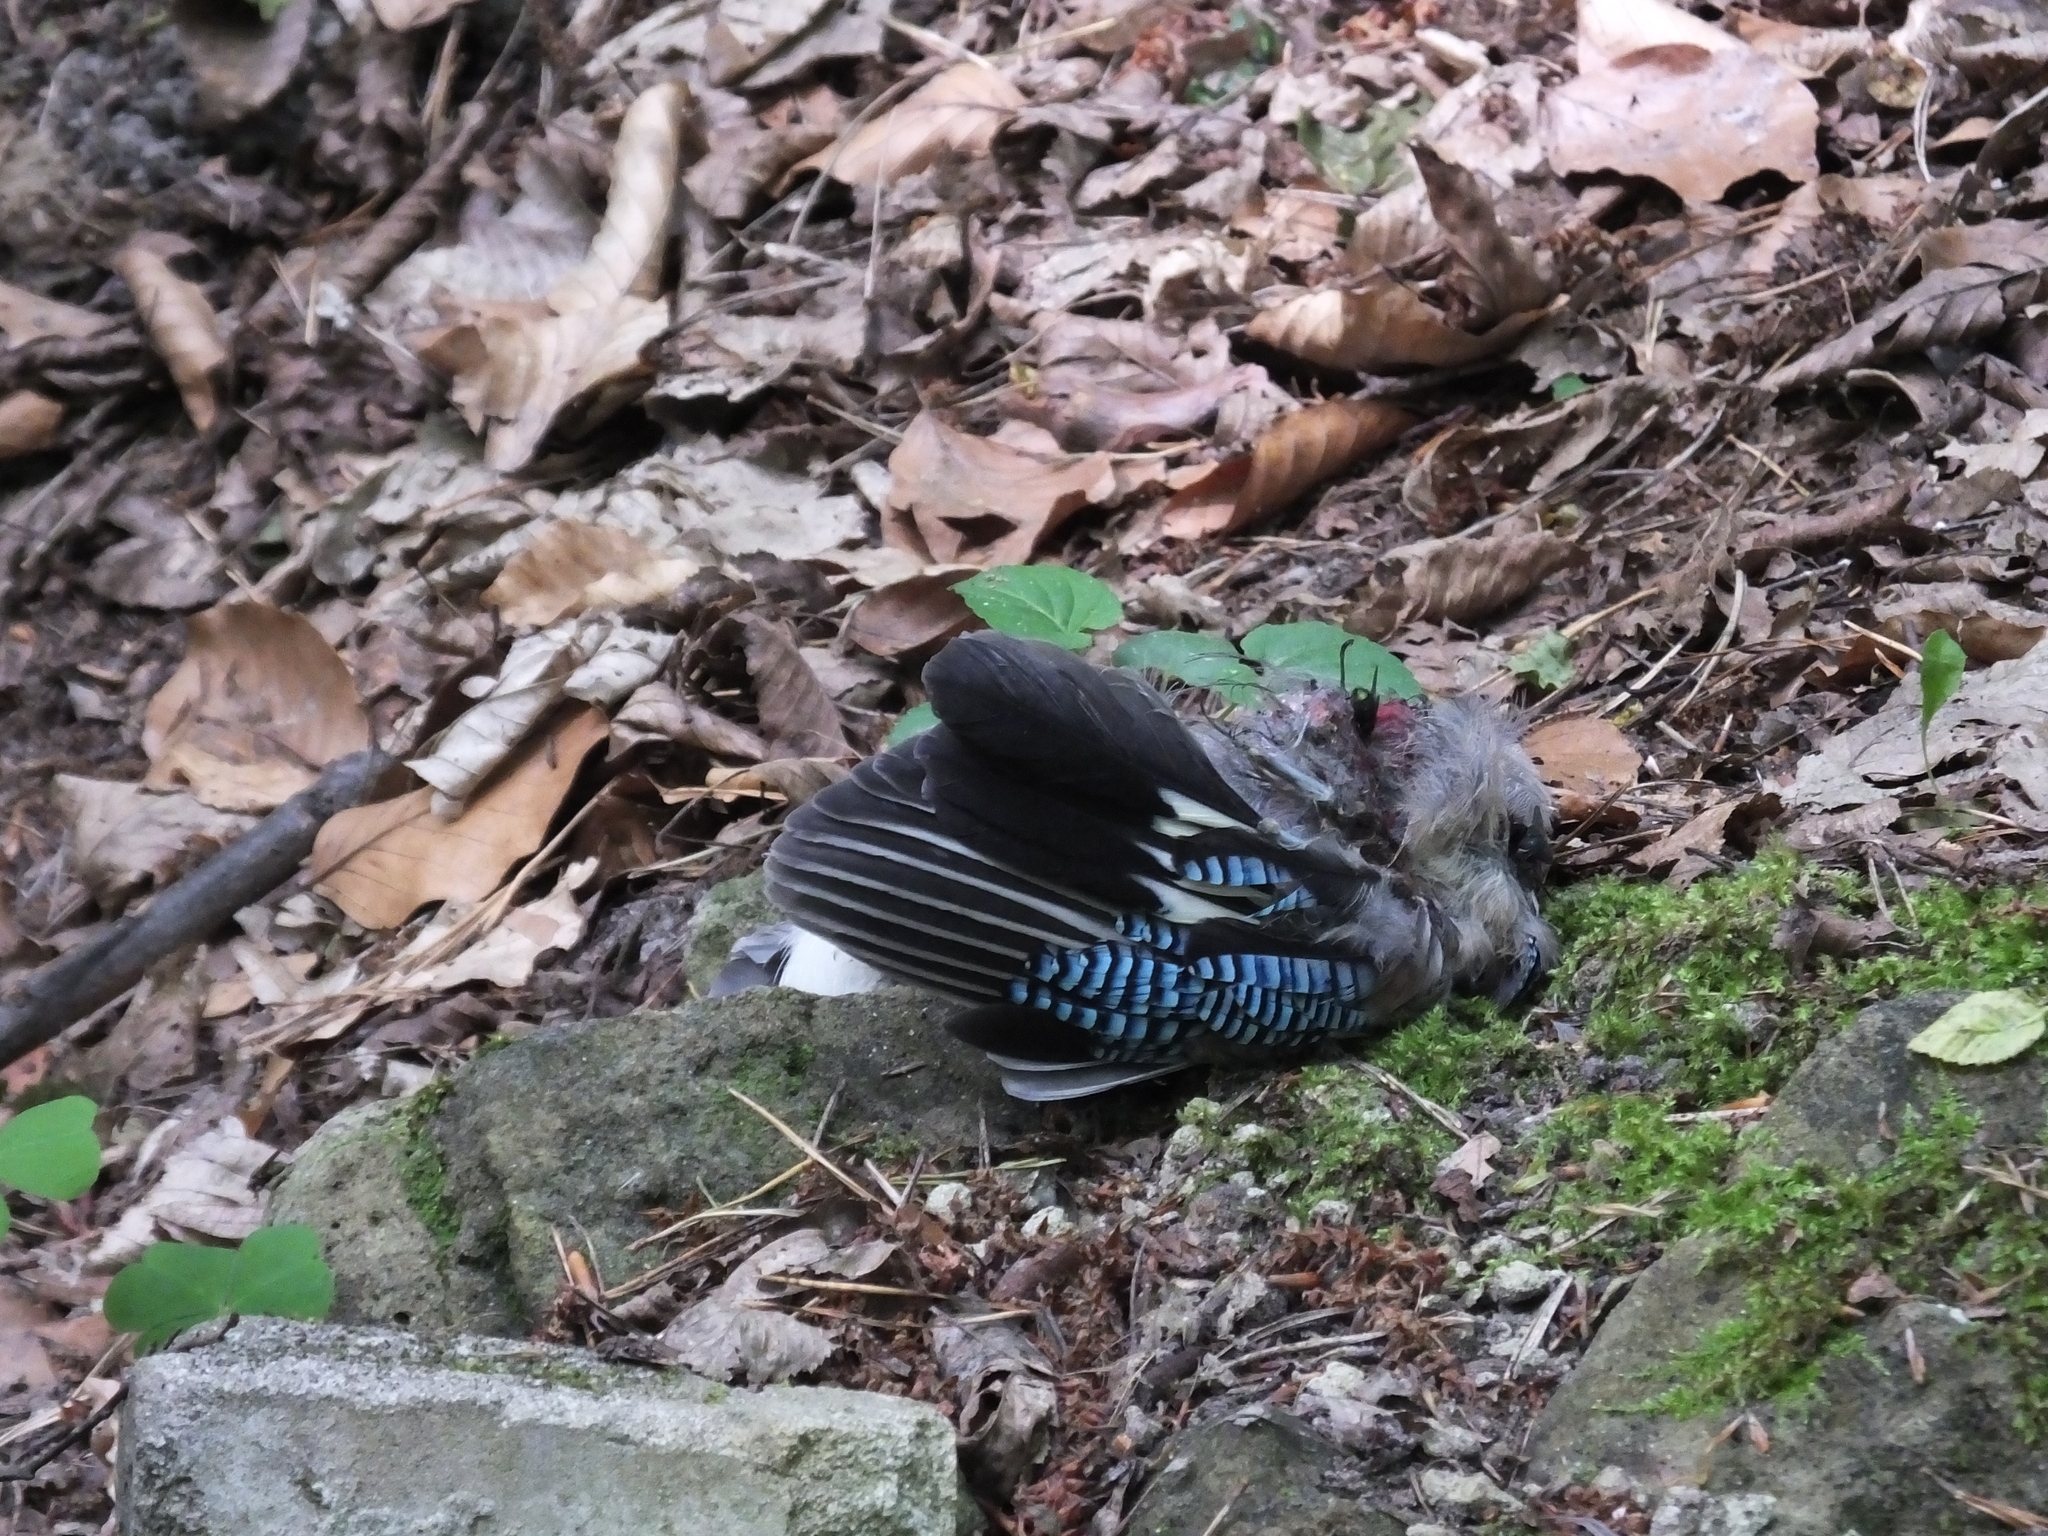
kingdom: Animalia
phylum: Chordata
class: Aves
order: Passeriformes
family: Corvidae
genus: Garrulus
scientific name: Garrulus glandarius
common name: Eurasian jay
